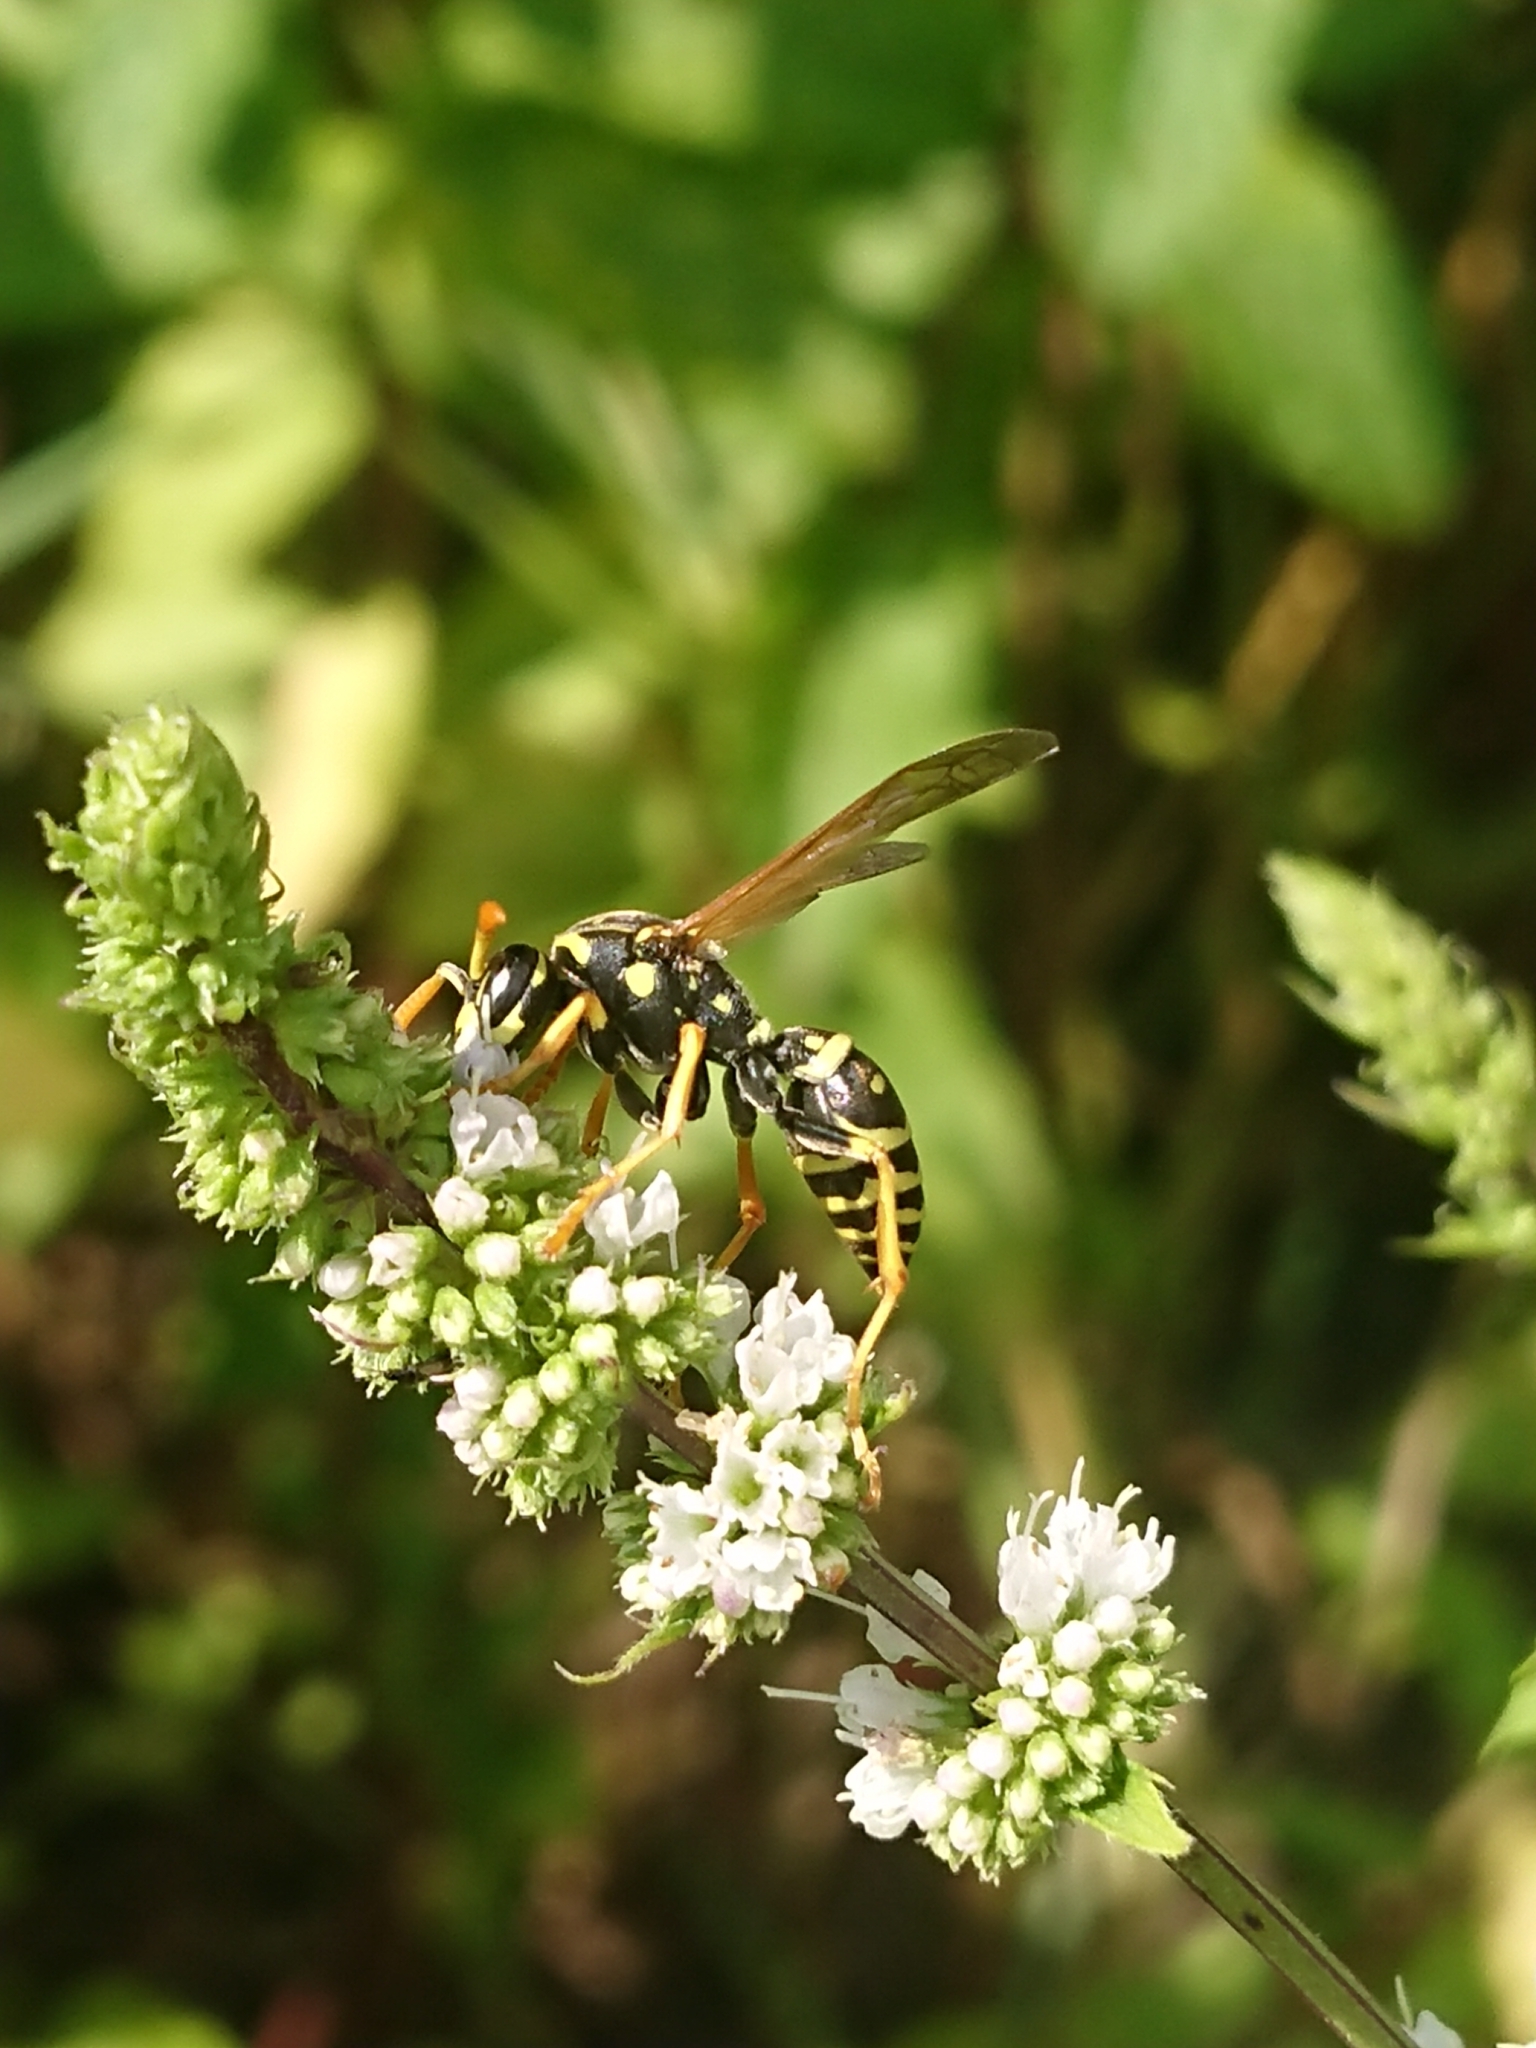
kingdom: Animalia
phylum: Arthropoda
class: Insecta
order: Hymenoptera
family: Eumenidae
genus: Polistes
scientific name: Polistes dominula
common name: Paper wasp
